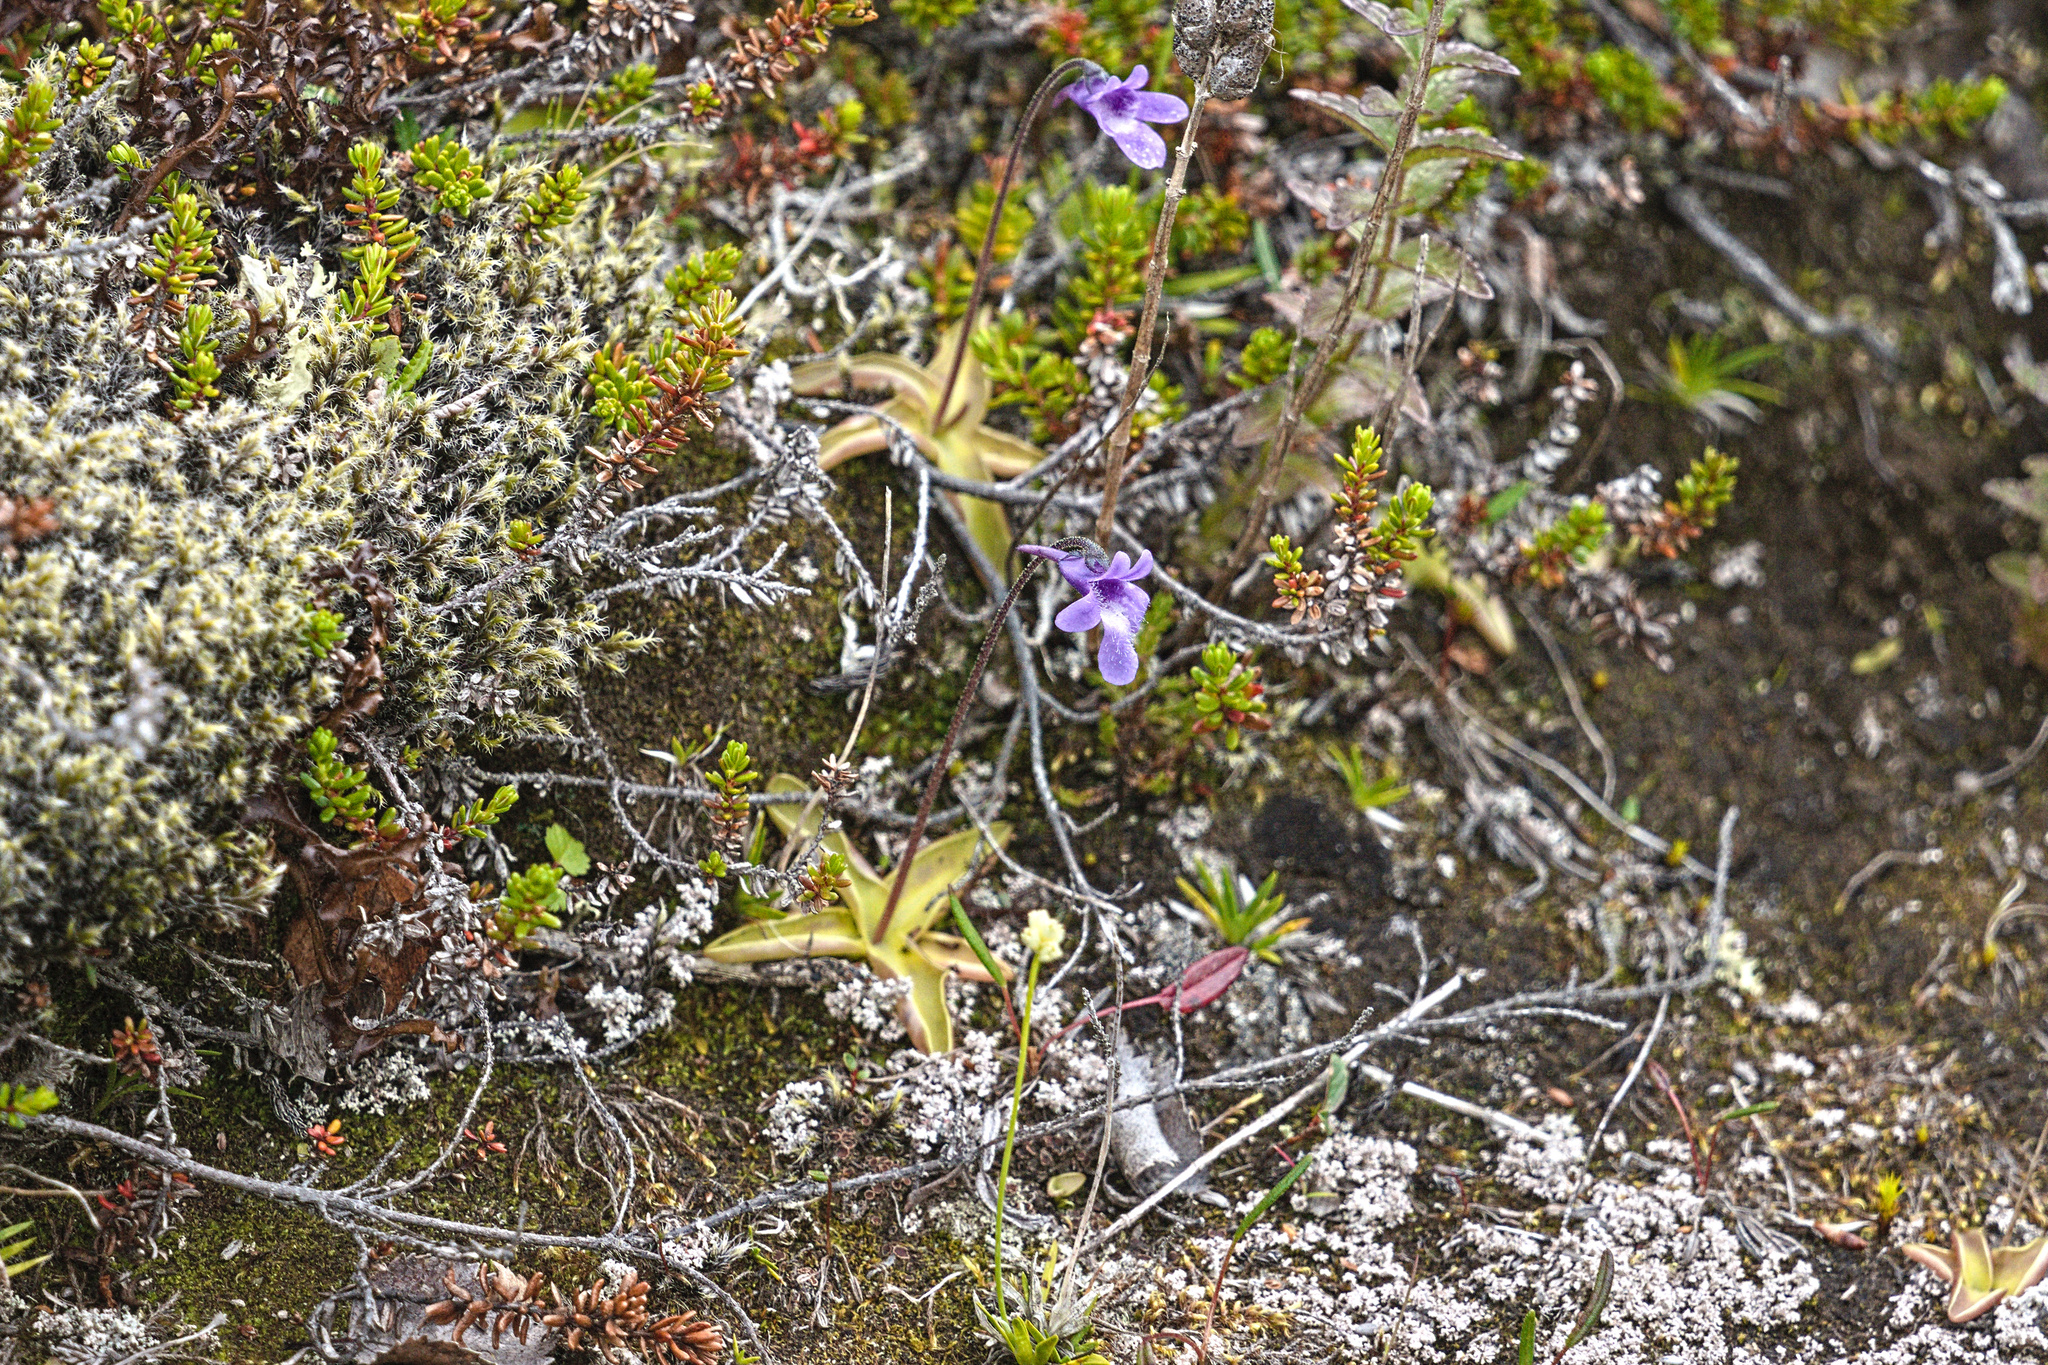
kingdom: Plantae
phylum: Tracheophyta
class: Magnoliopsida
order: Lamiales
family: Lentibulariaceae
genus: Pinguicula
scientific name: Pinguicula vulgaris
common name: Common butterwort
